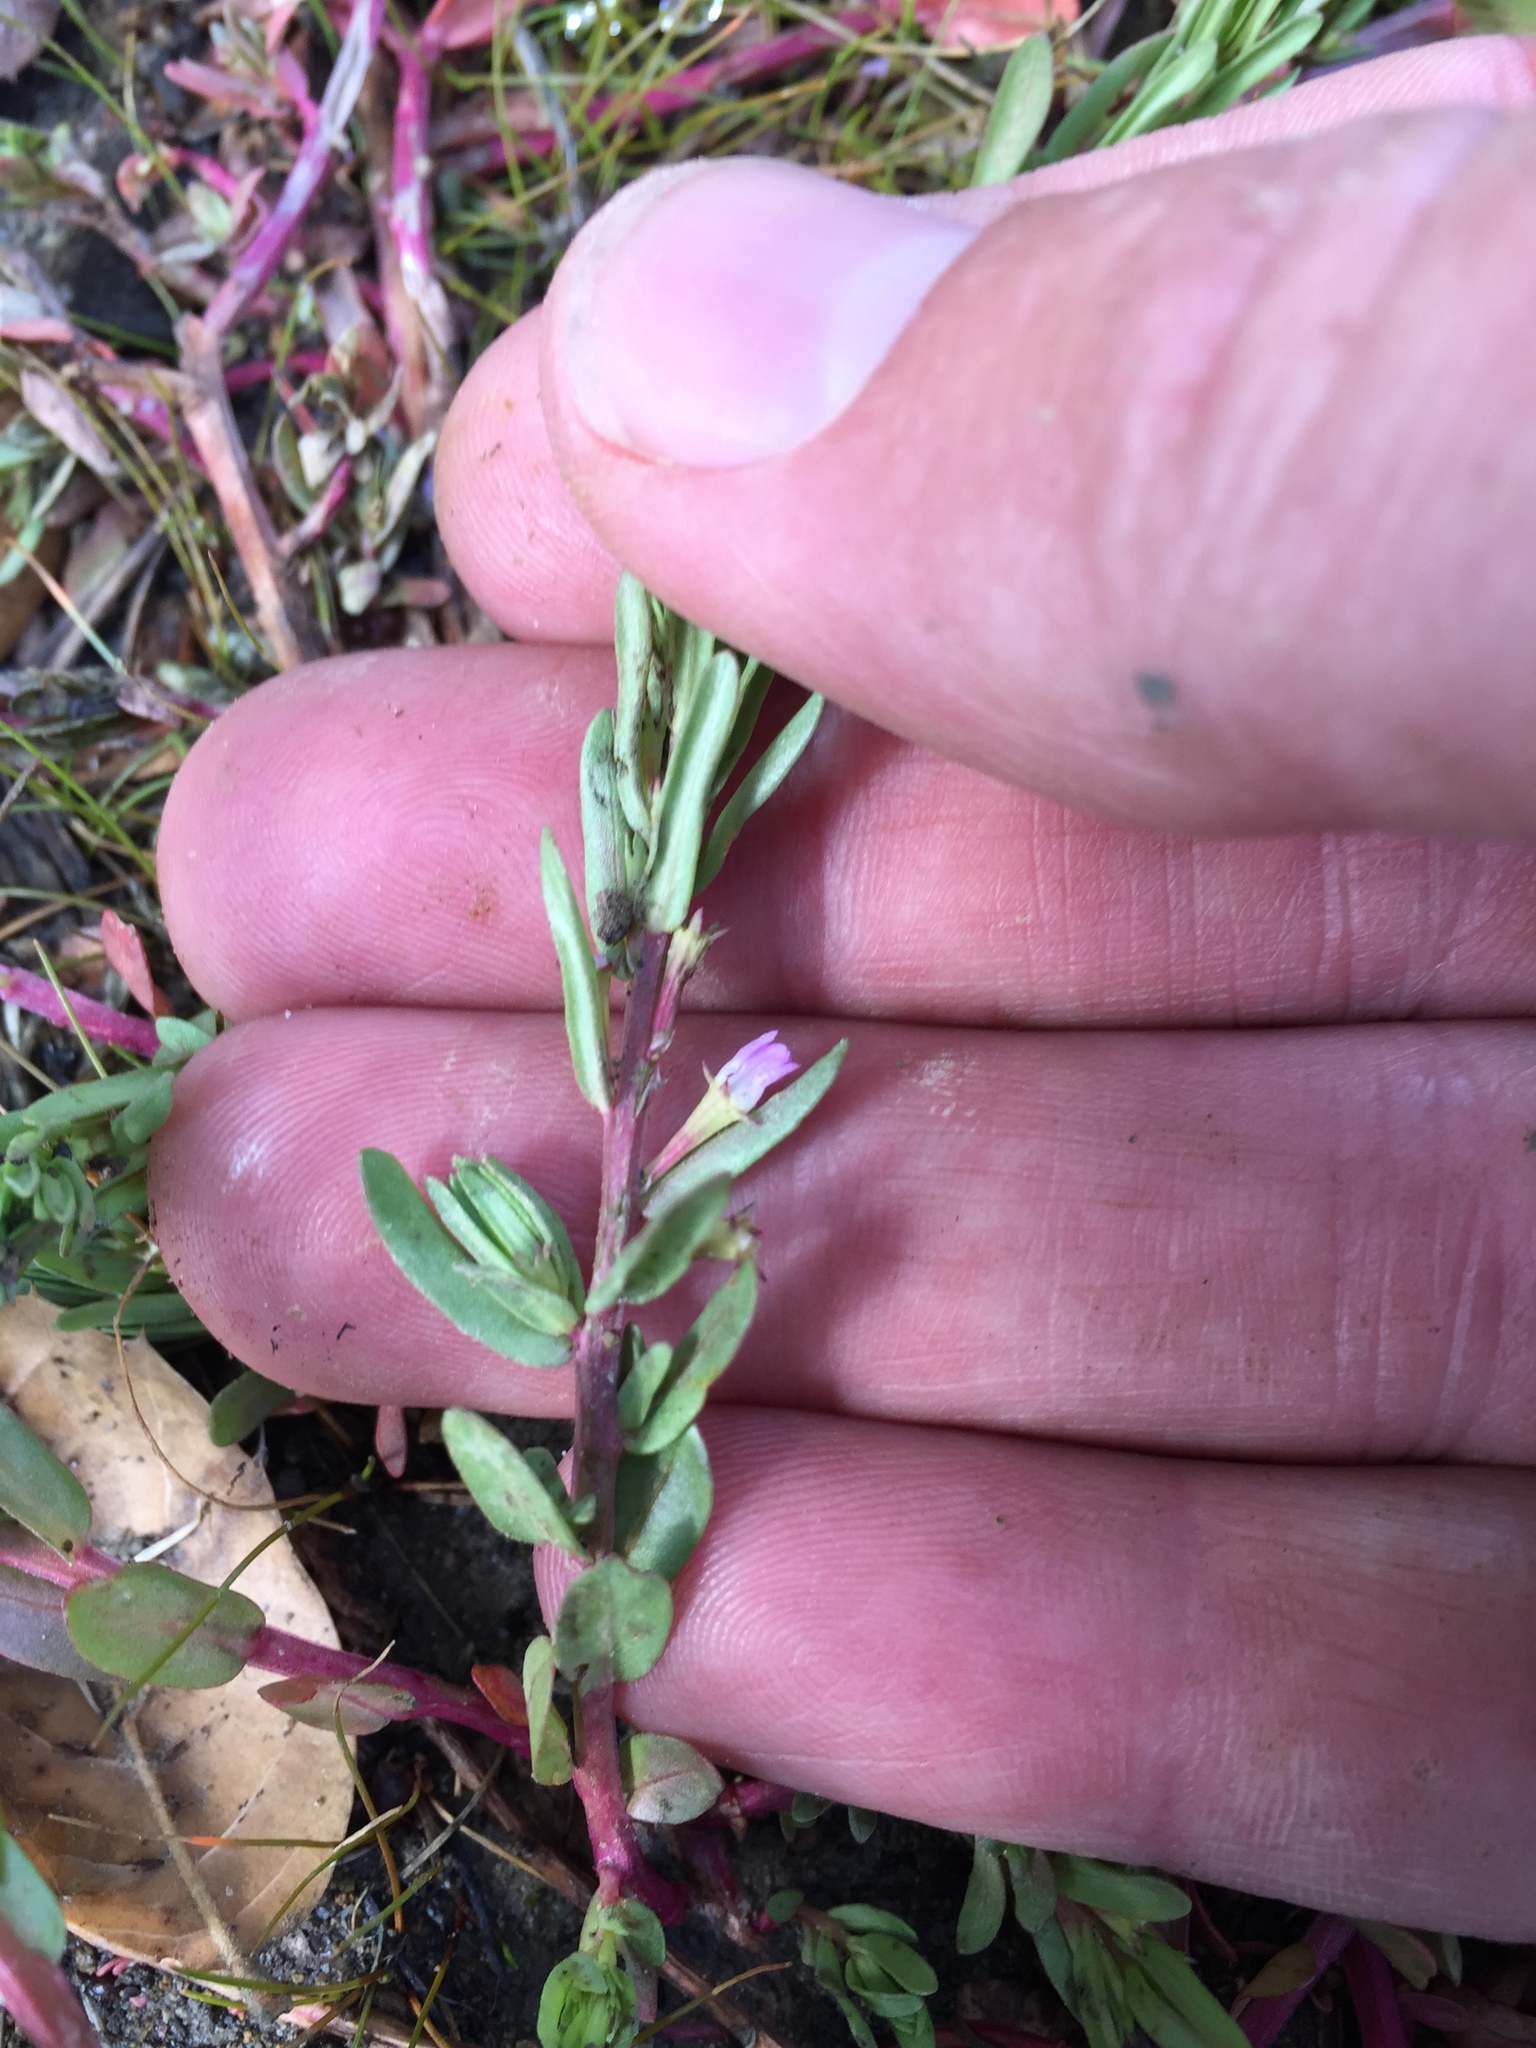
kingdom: Plantae
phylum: Tracheophyta
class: Magnoliopsida
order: Myrtales
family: Lythraceae
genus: Lythrum
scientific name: Lythrum hyssopifolia
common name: Grass-poly
